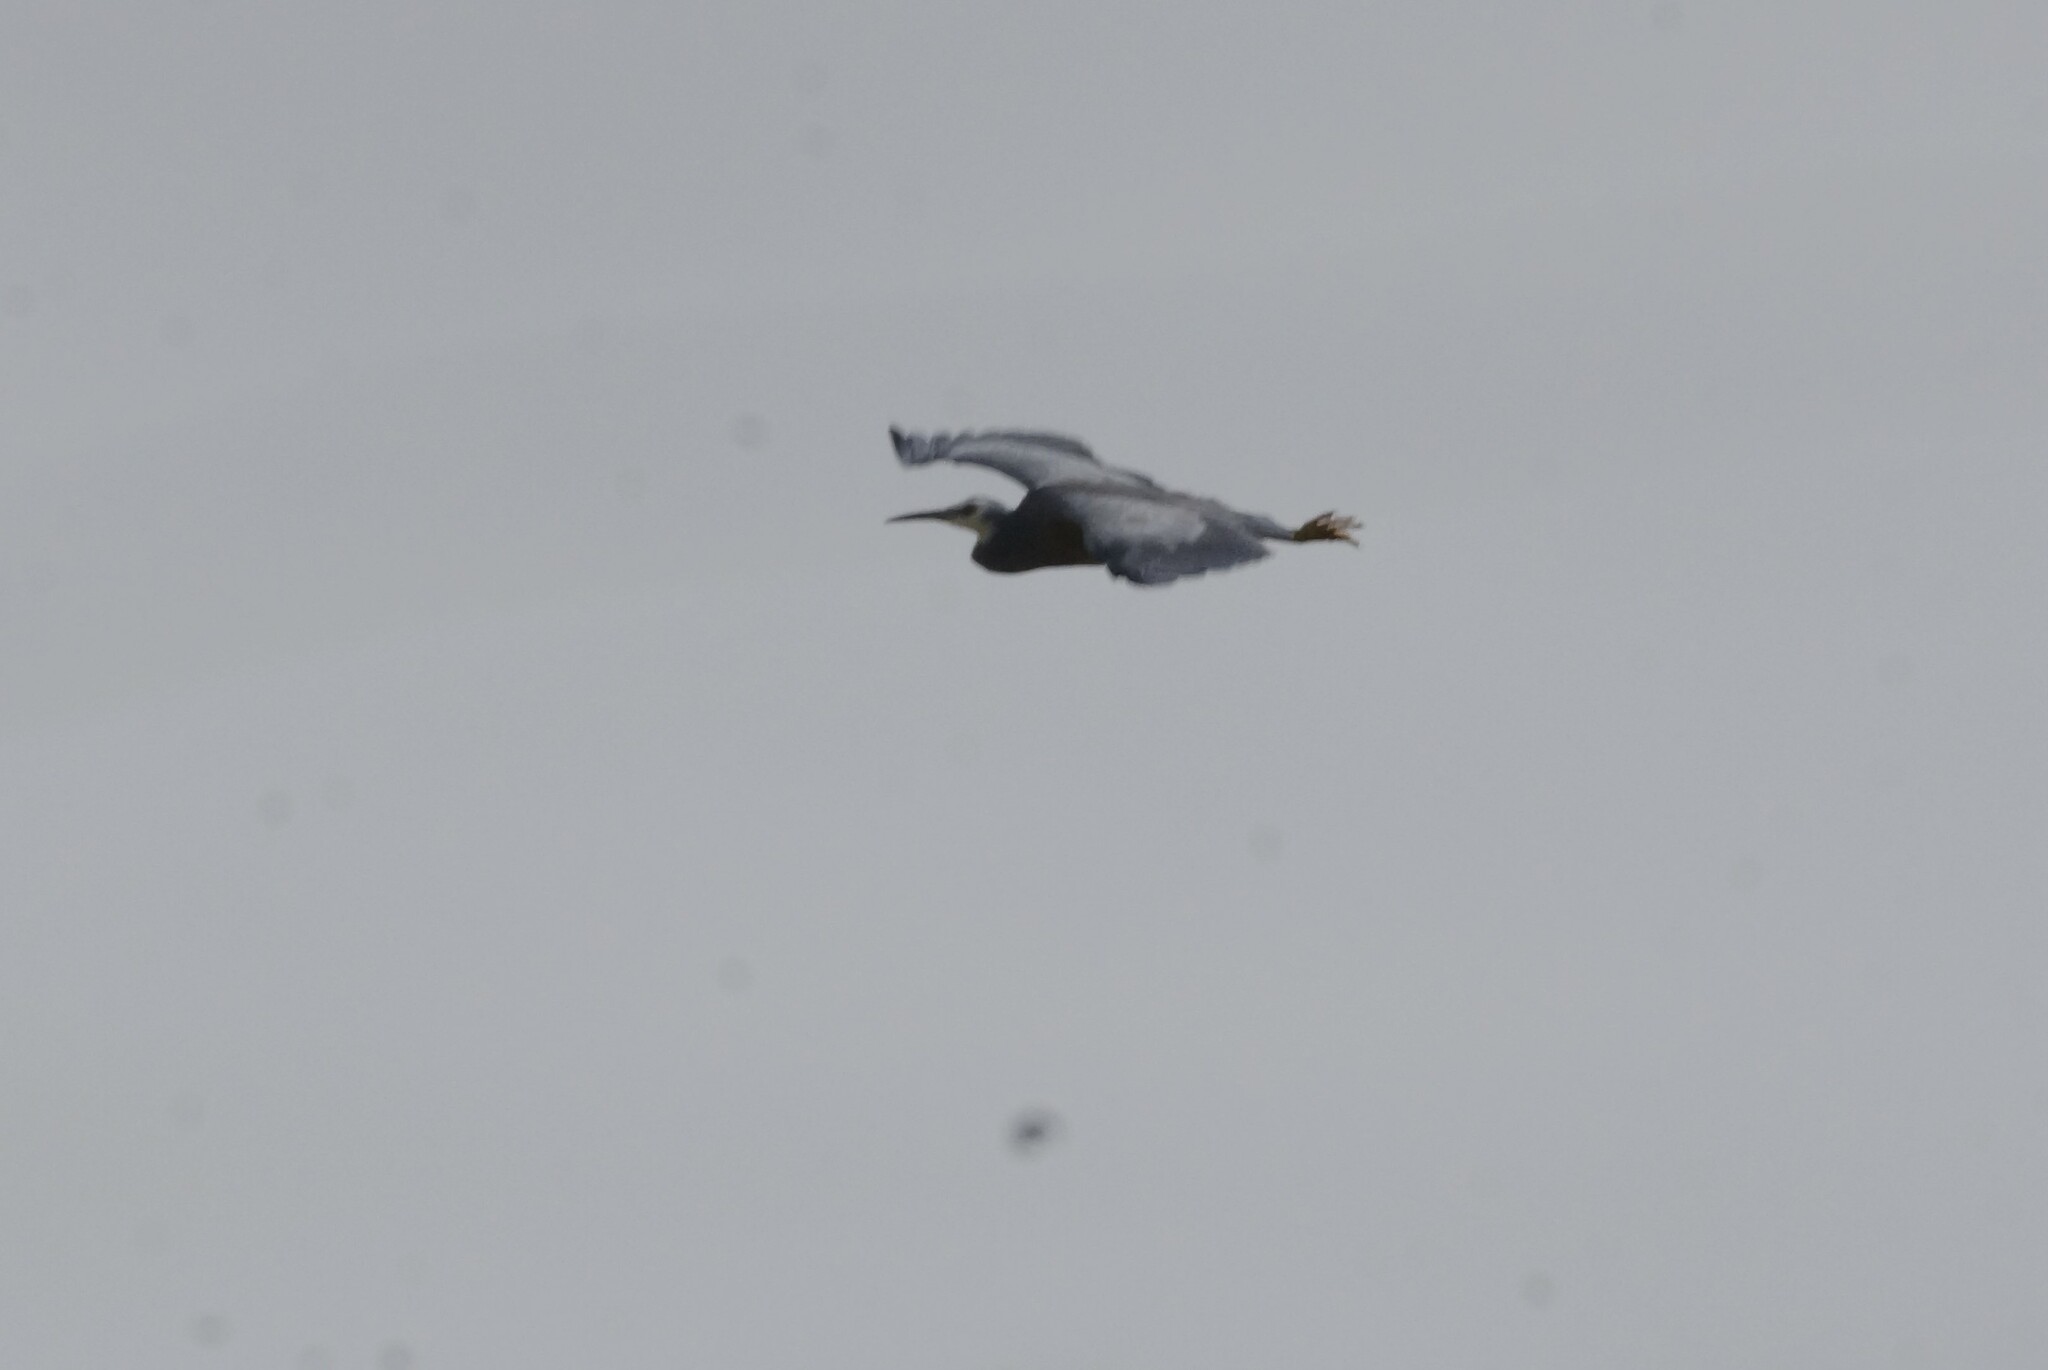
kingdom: Animalia
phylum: Chordata
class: Aves
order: Pelecaniformes
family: Ardeidae
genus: Egretta
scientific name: Egretta novaehollandiae
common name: White-faced heron
